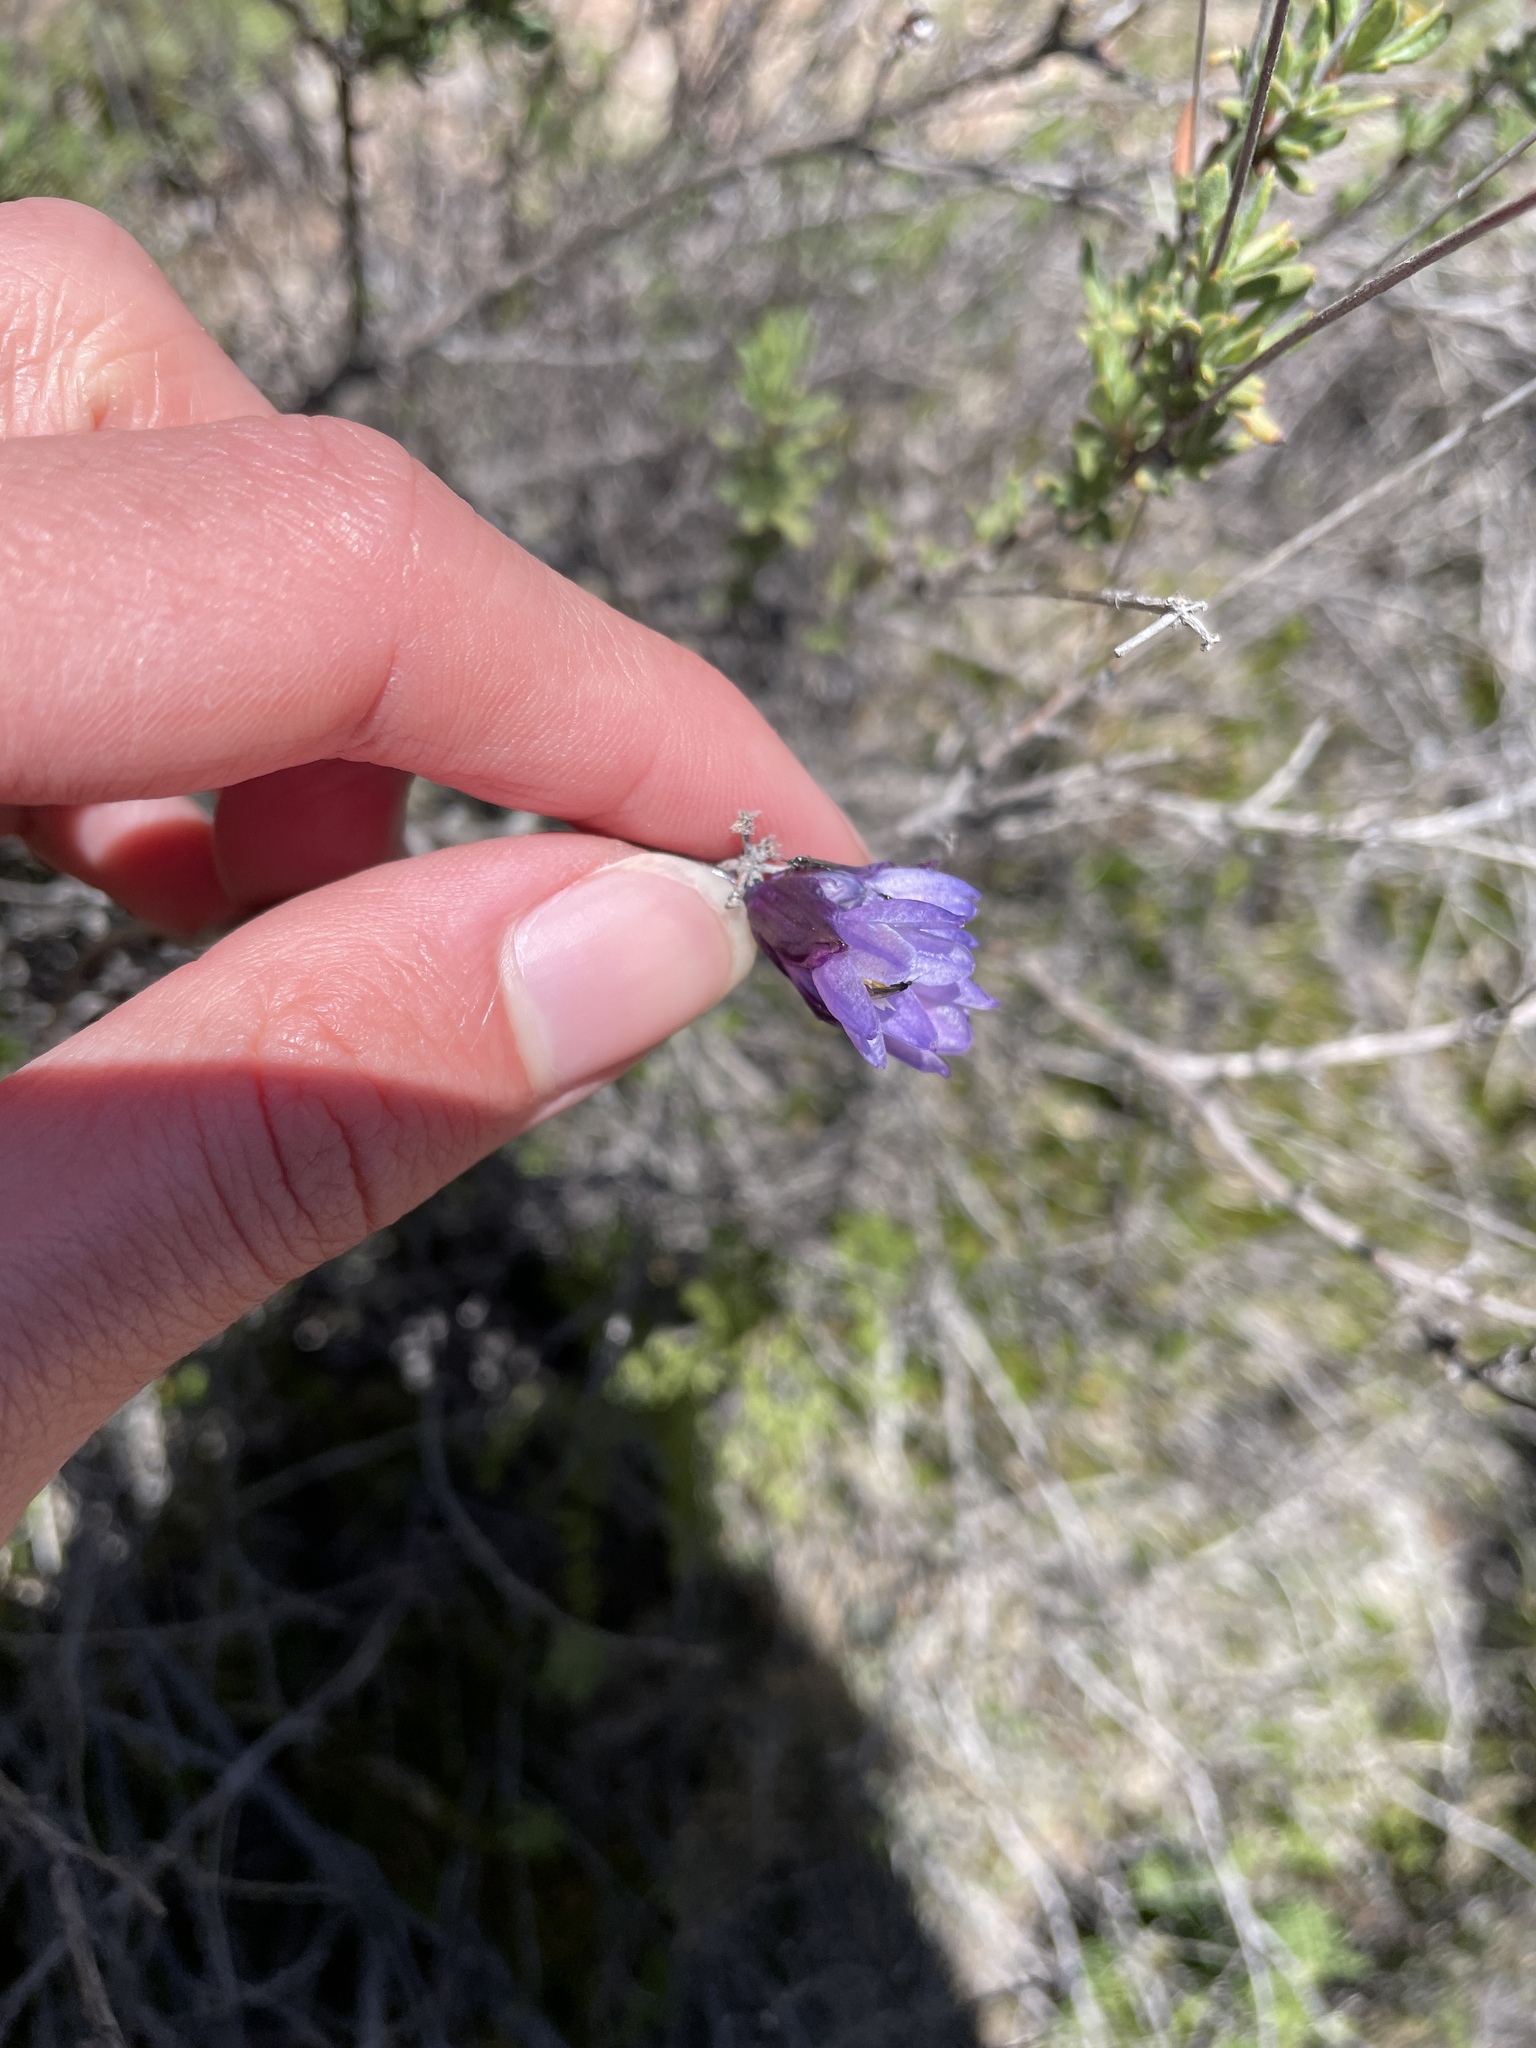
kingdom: Plantae
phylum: Tracheophyta
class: Liliopsida
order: Asparagales
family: Asparagaceae
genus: Dipterostemon
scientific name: Dipterostemon capitatus
